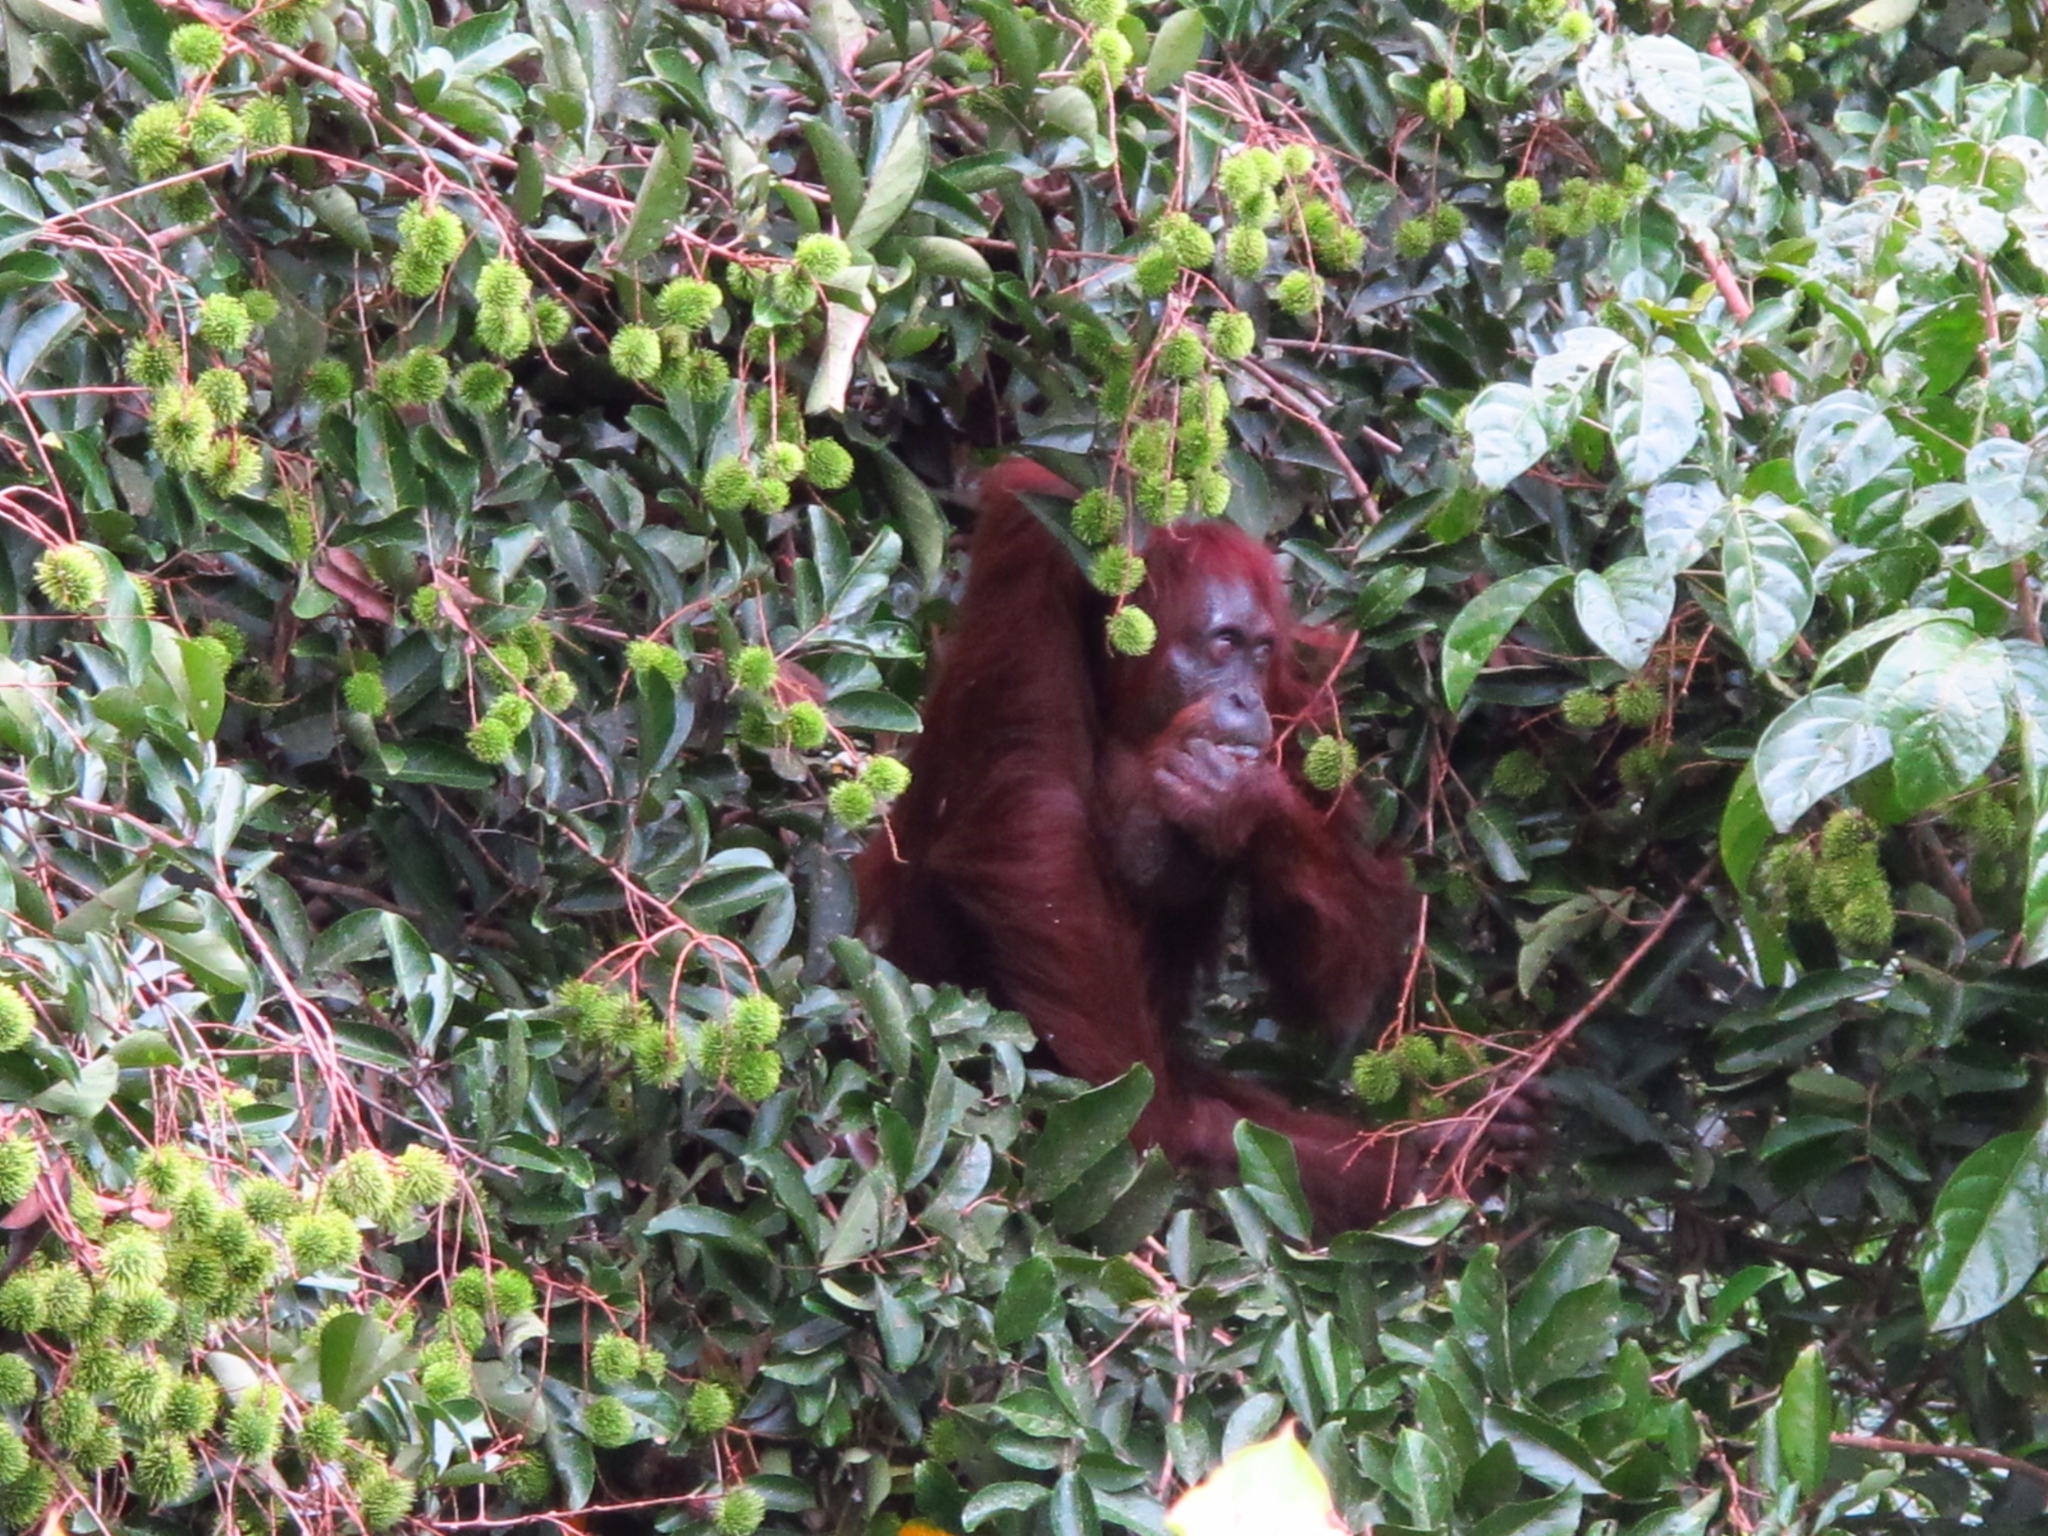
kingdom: Animalia
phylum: Chordata
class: Mammalia
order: Primates
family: Hominidae
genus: Pongo
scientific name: Pongo pygmaeus
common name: Bornean orangutan
